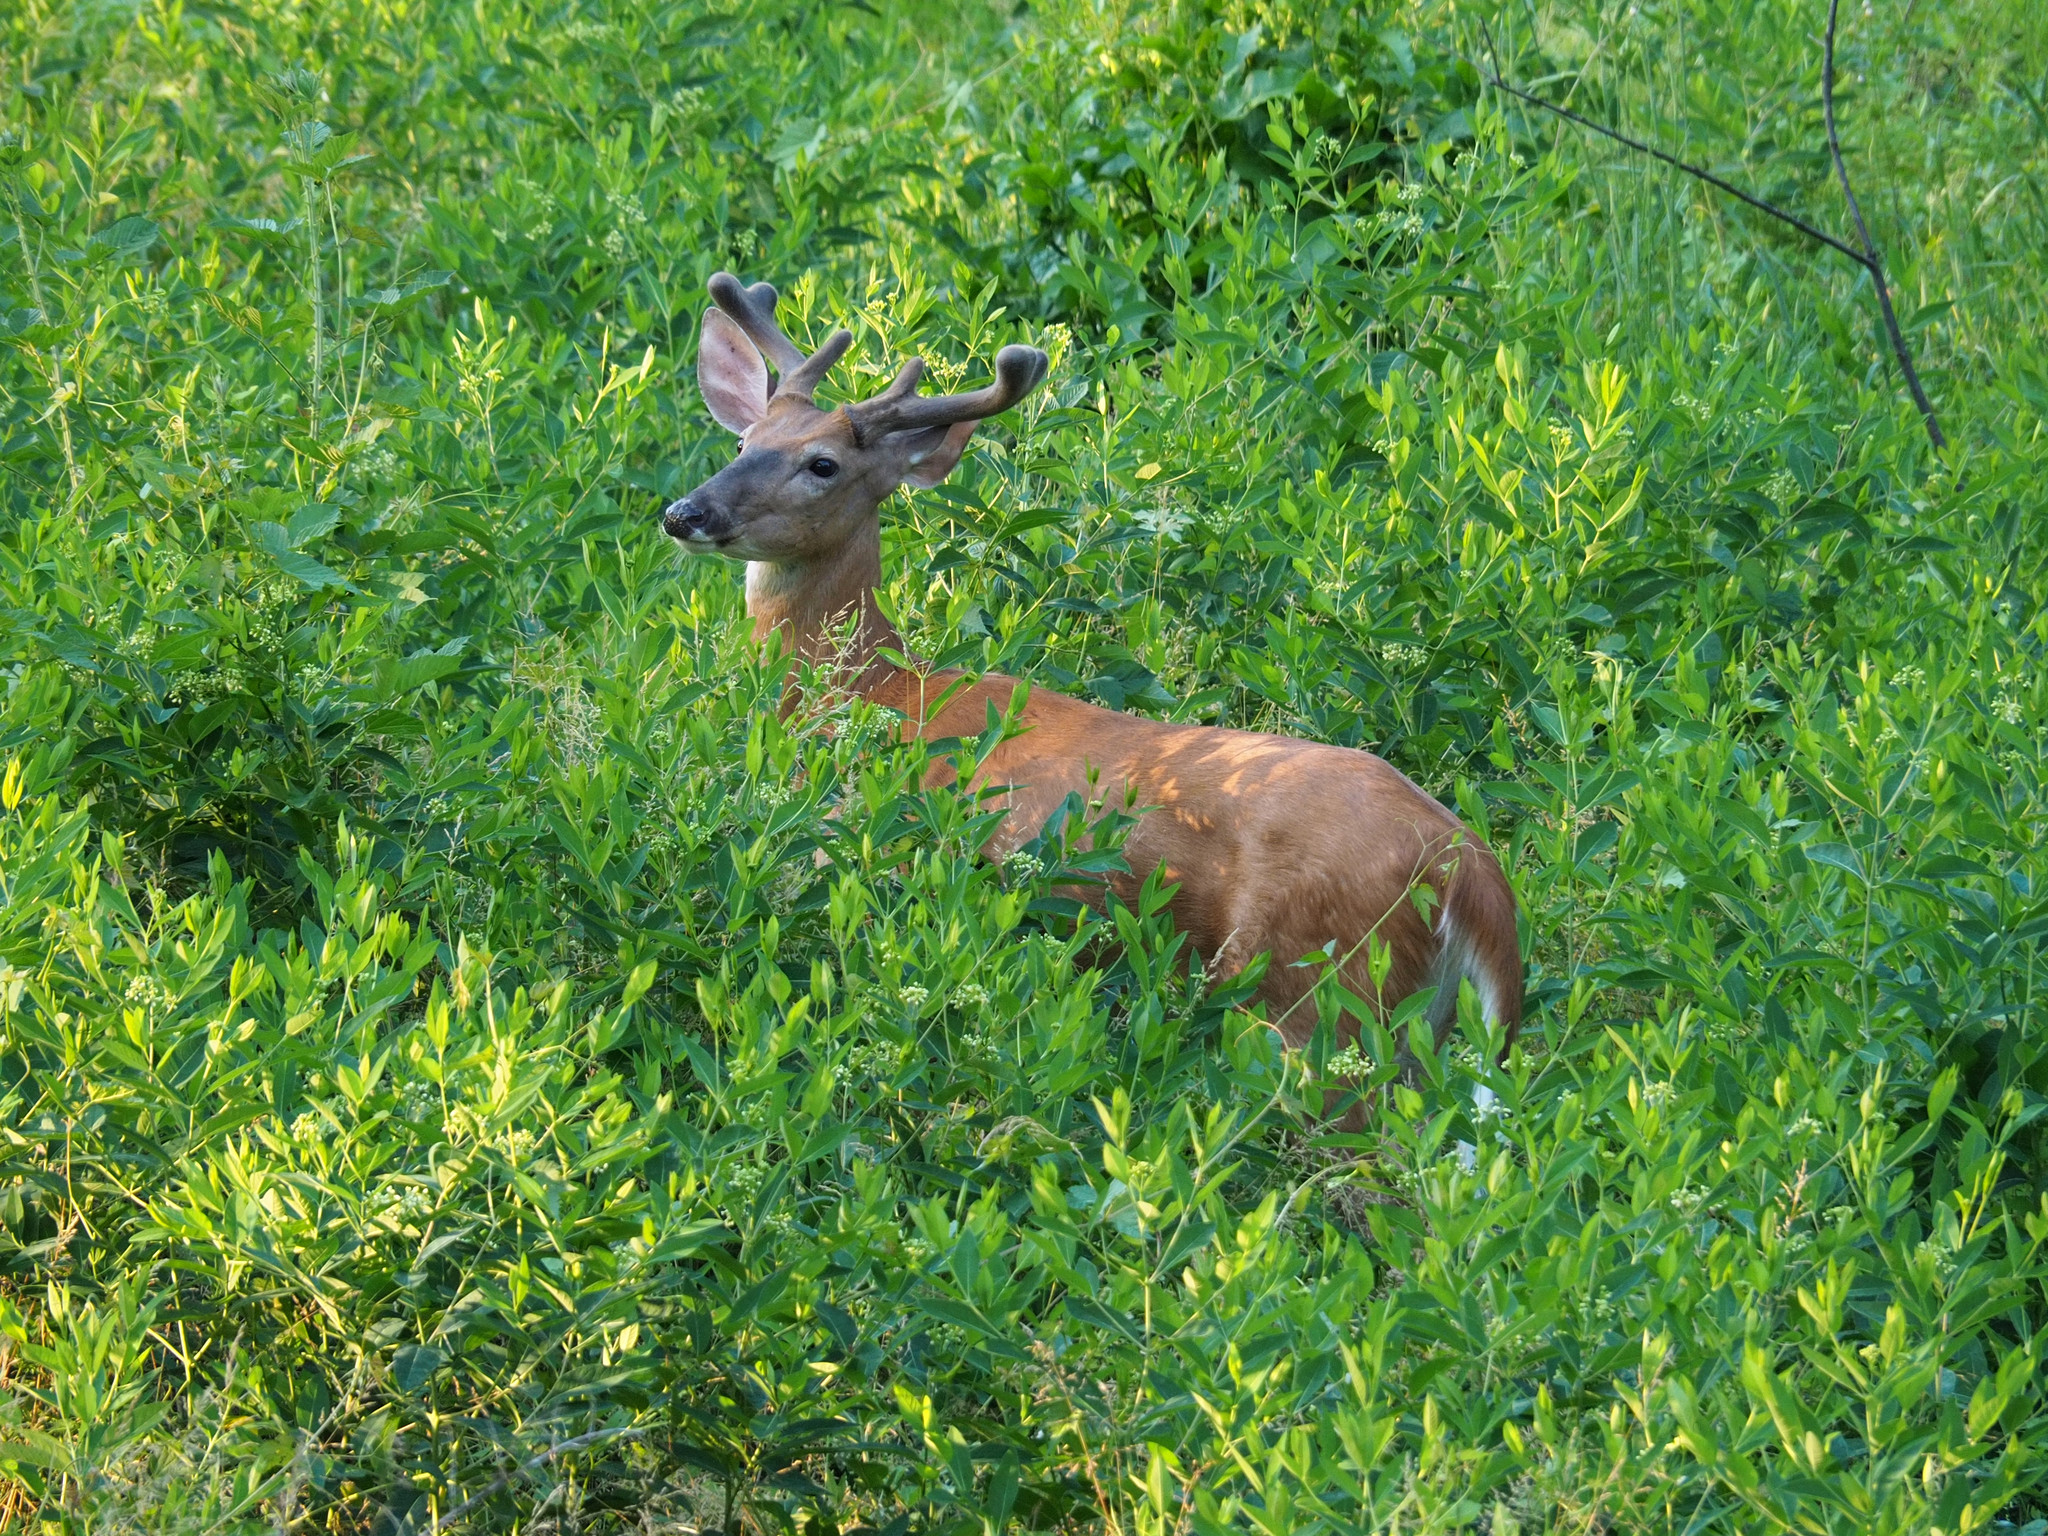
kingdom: Animalia
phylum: Chordata
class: Mammalia
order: Artiodactyla
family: Cervidae
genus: Odocoileus
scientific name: Odocoileus virginianus
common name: White-tailed deer
